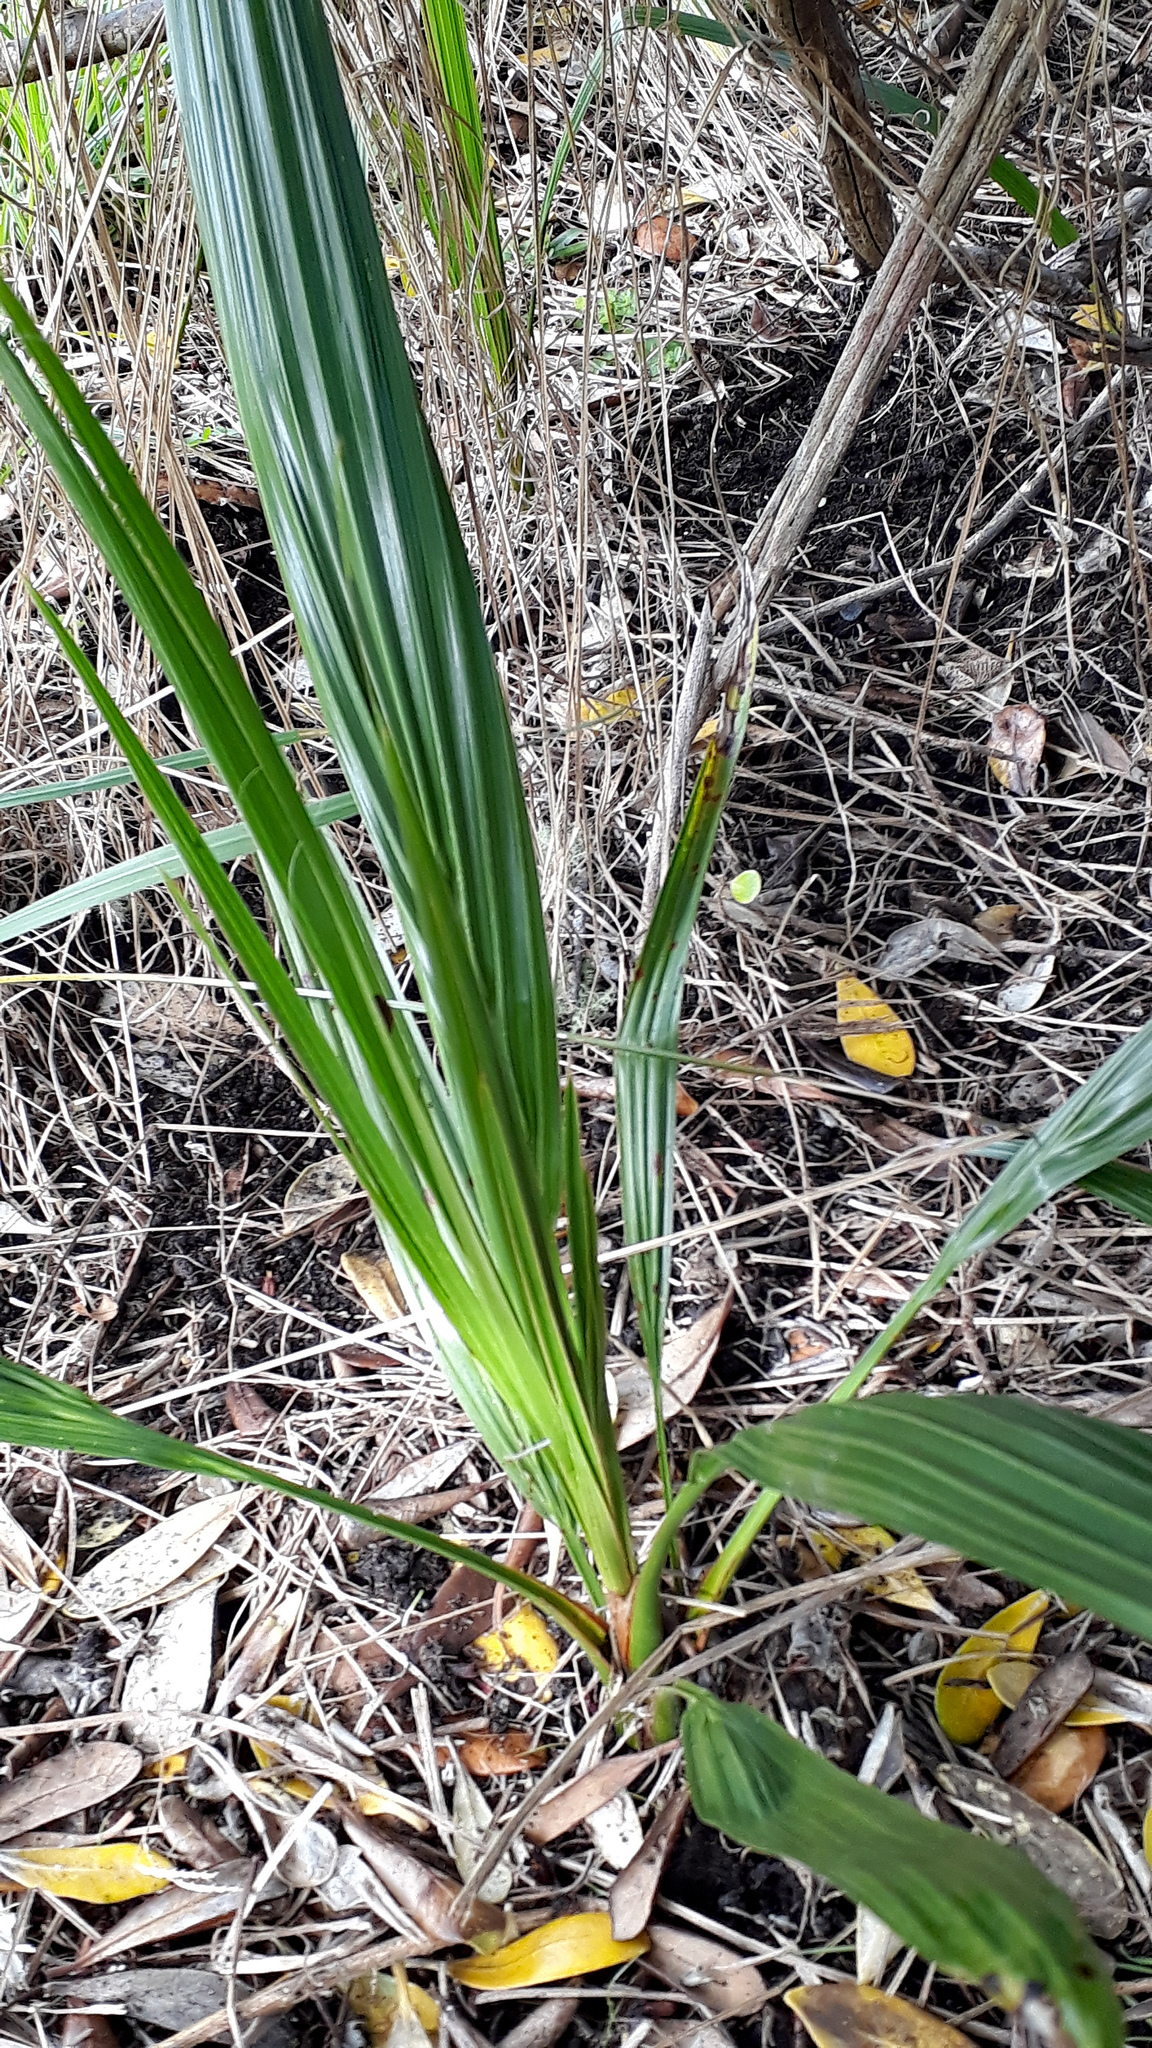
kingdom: Plantae
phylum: Tracheophyta
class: Liliopsida
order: Arecales
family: Arecaceae
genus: Syagrus
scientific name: Syagrus romanzoffiana
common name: Queen palm
